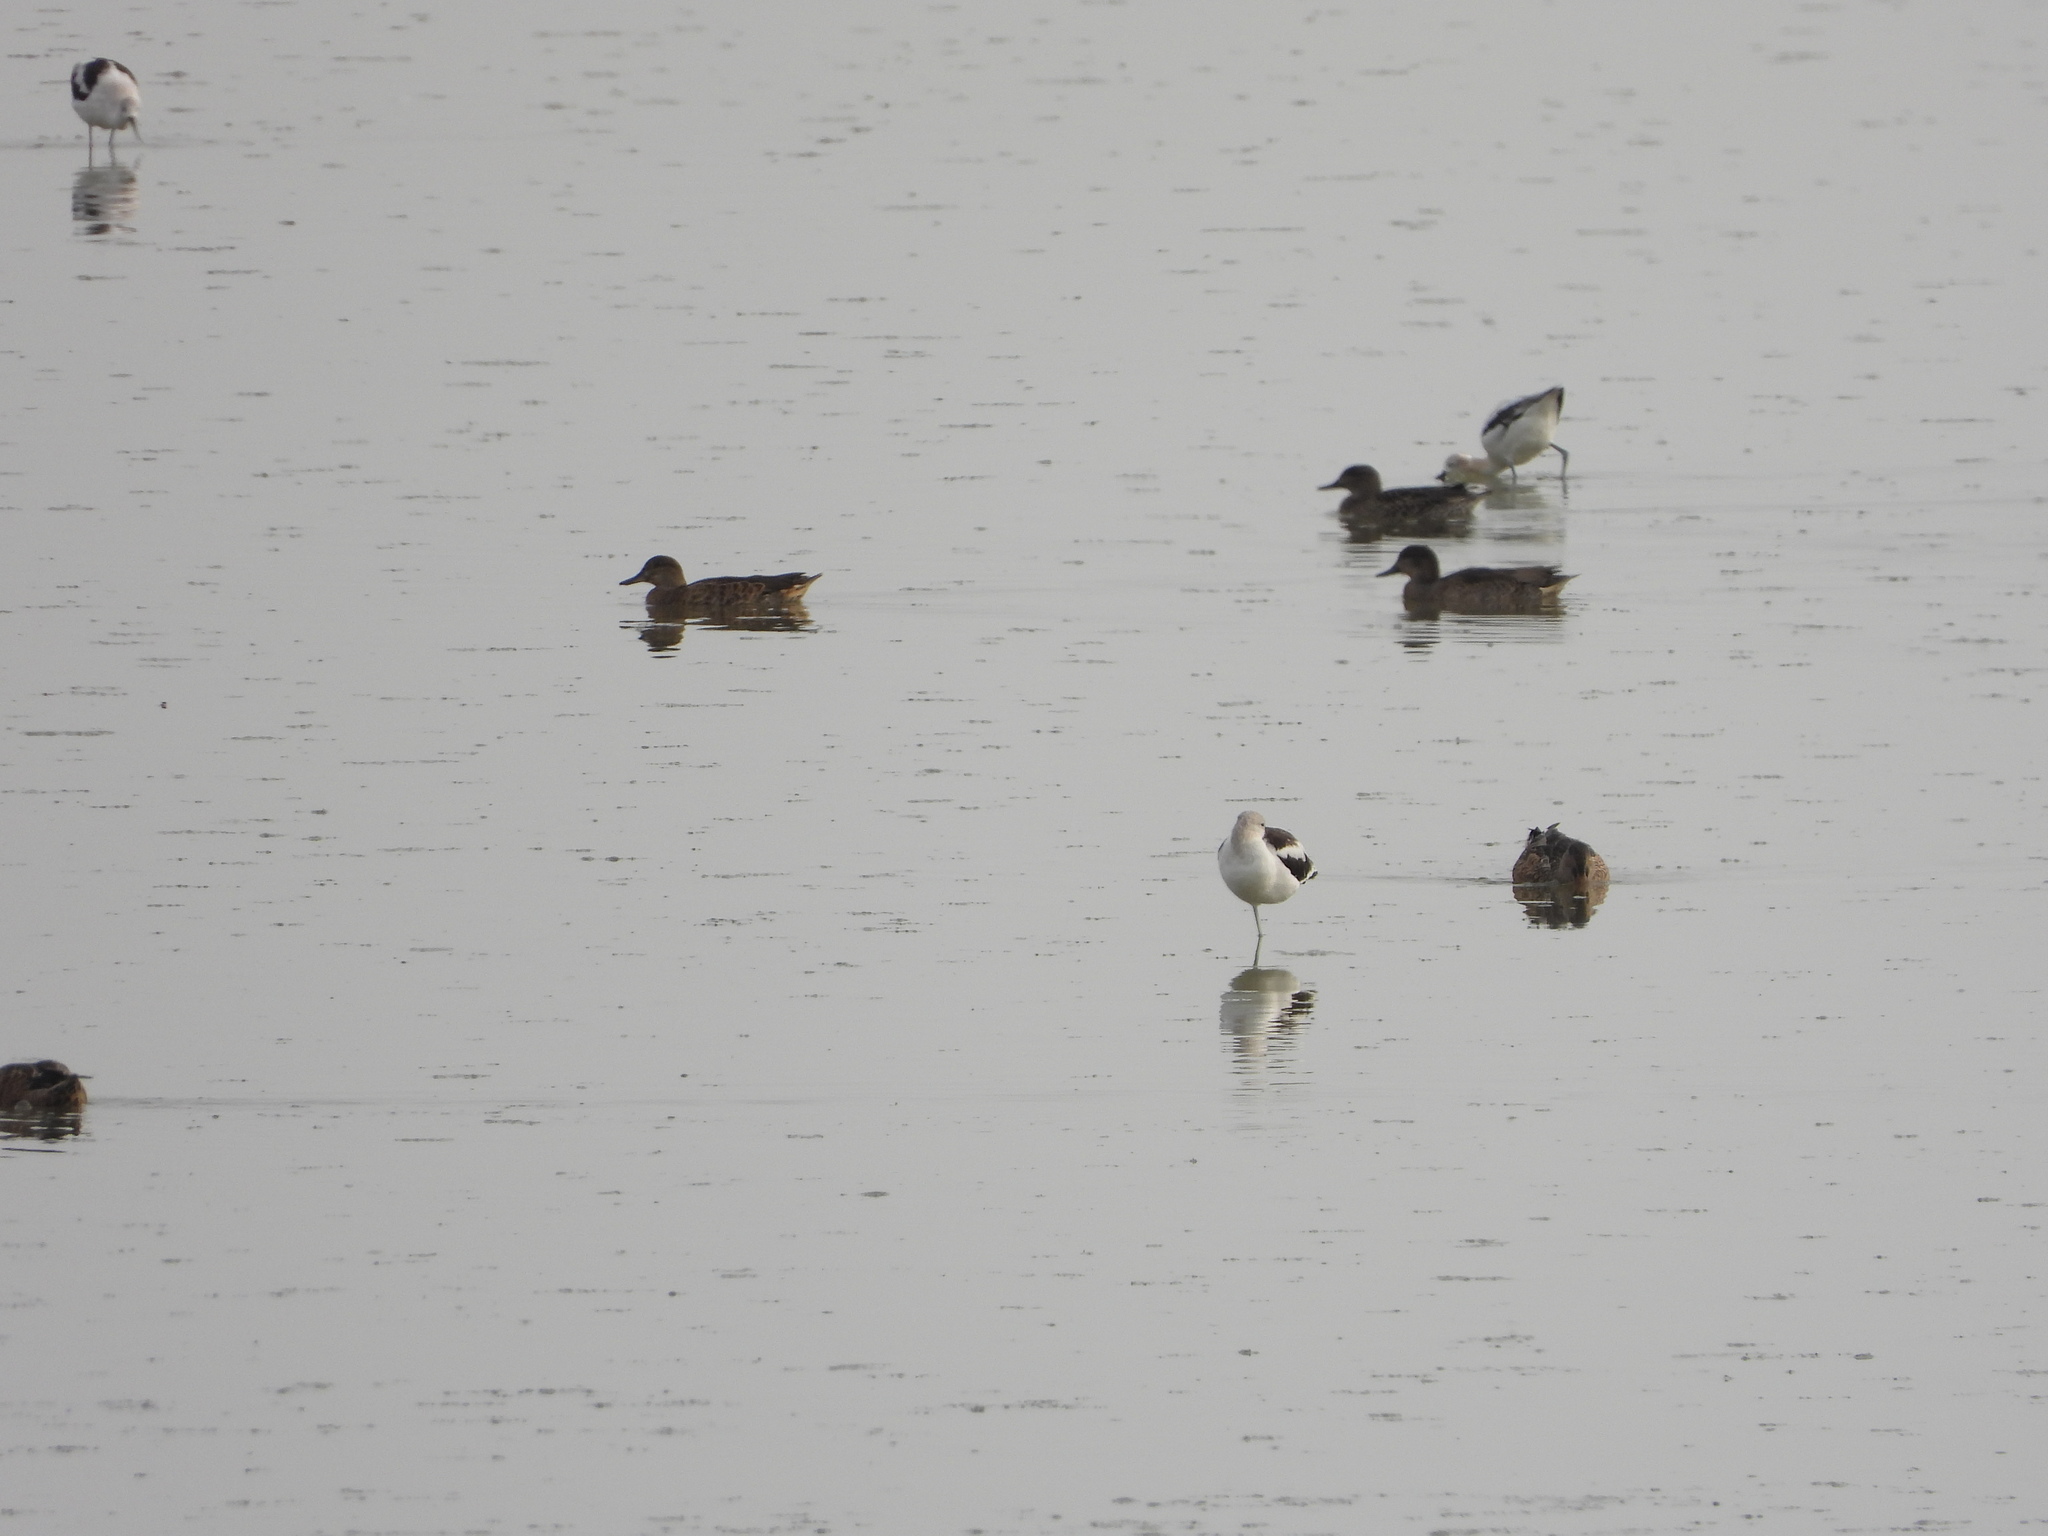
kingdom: Animalia
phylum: Chordata
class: Aves
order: Charadriiformes
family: Recurvirostridae
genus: Recurvirostra
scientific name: Recurvirostra americana
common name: American avocet
